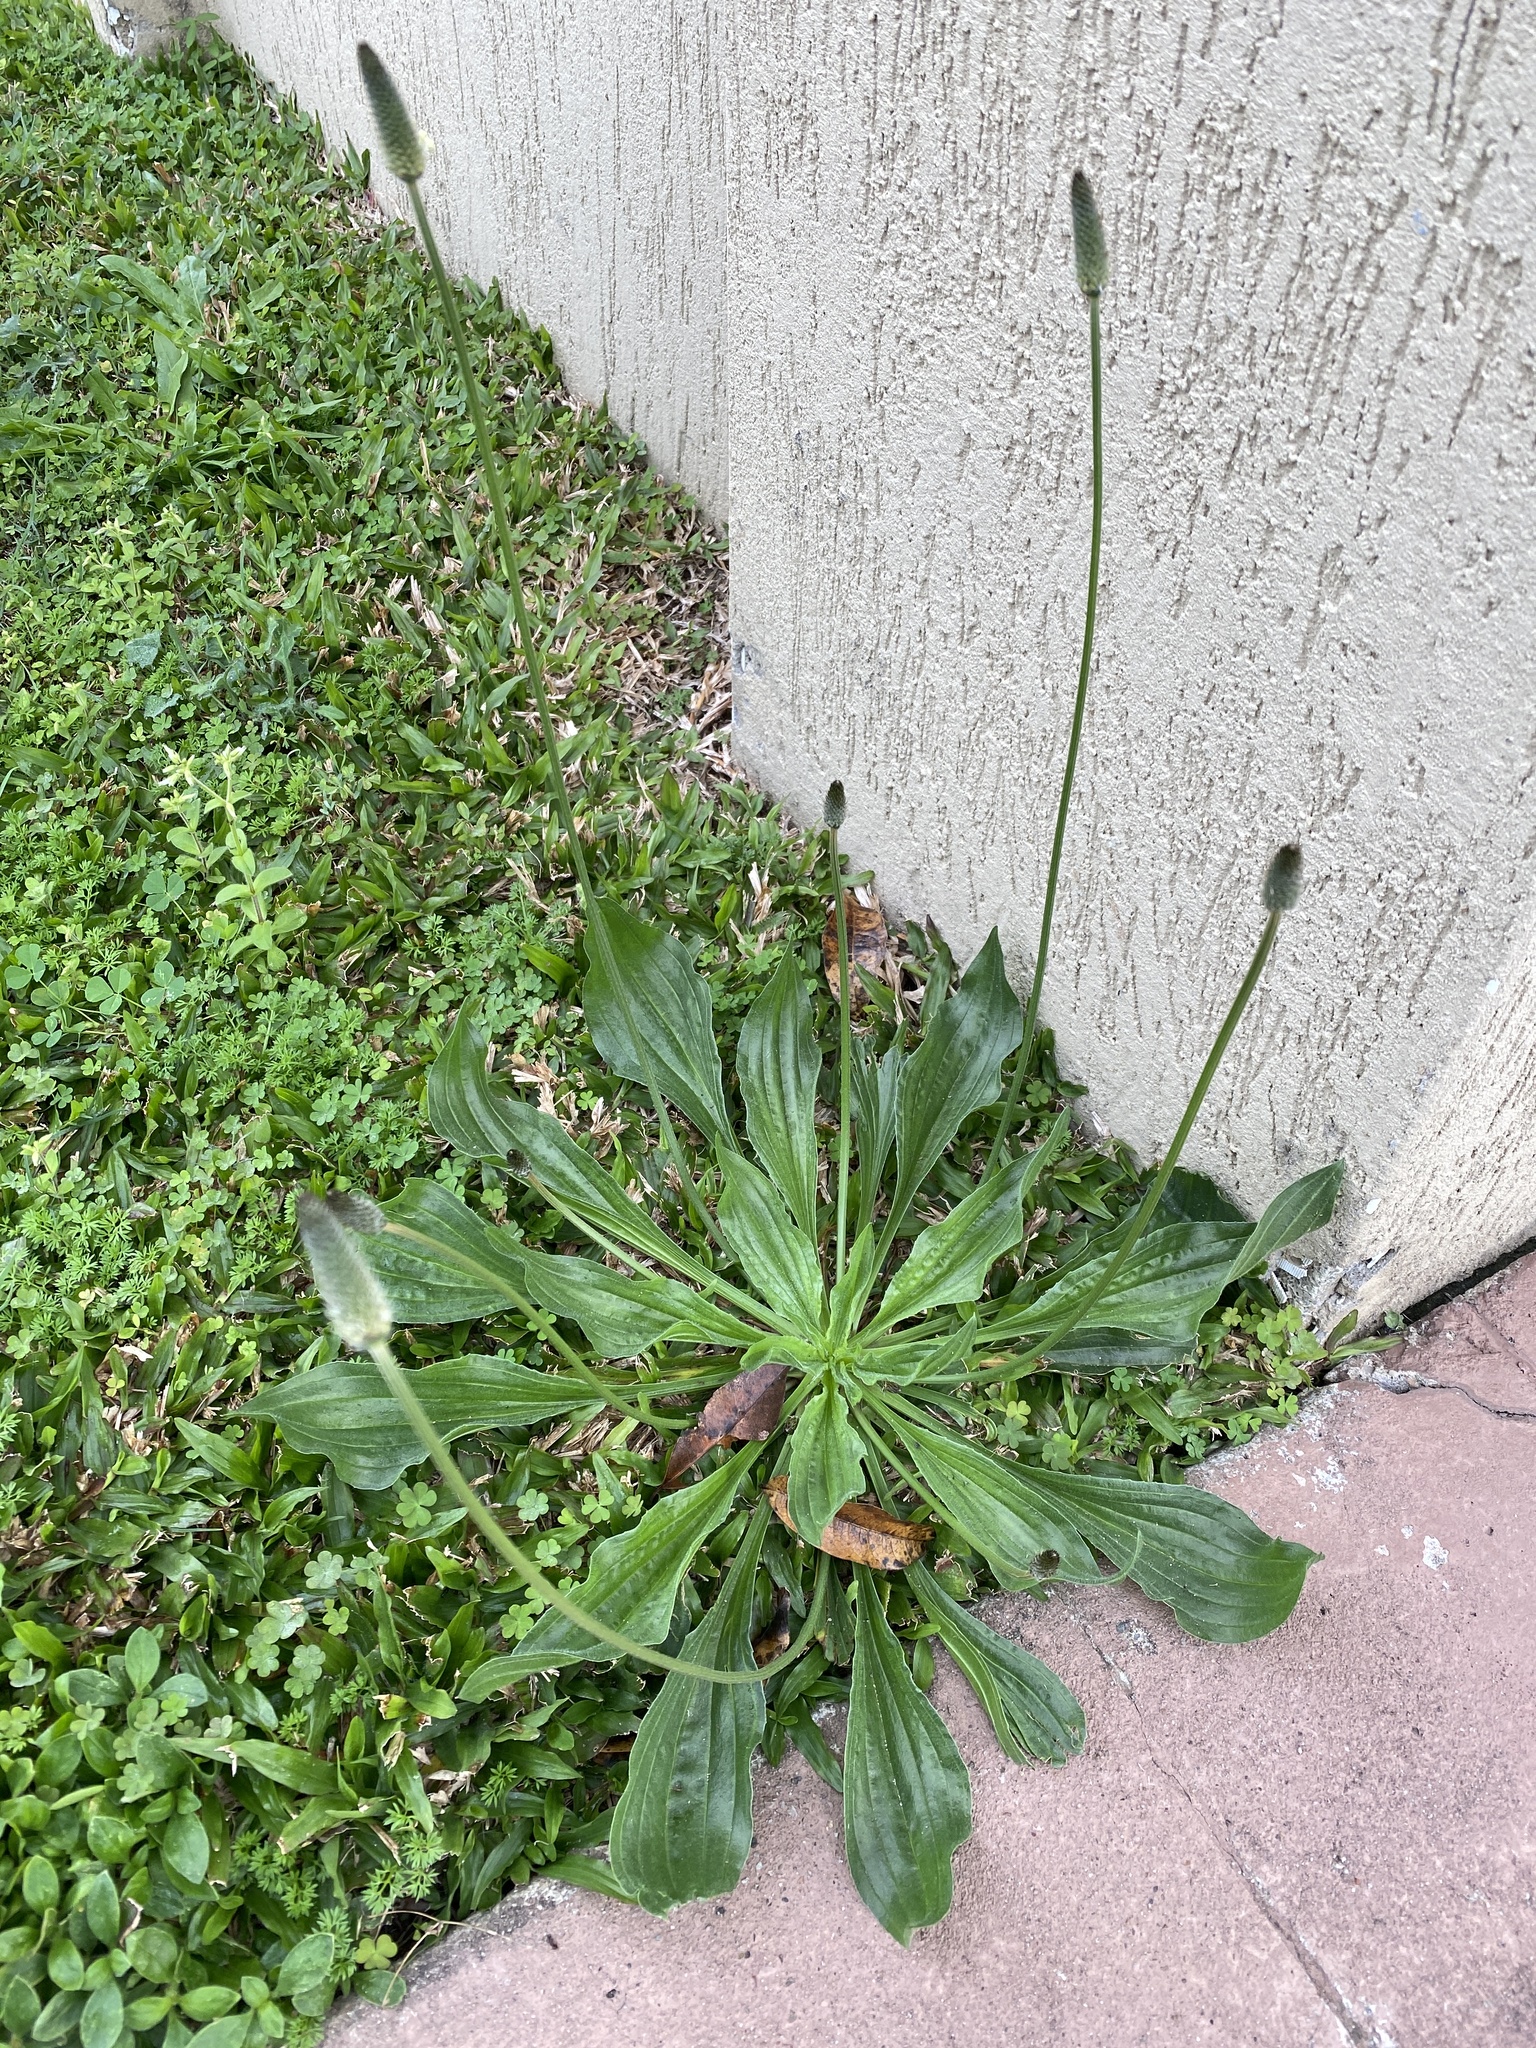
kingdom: Plantae
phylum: Tracheophyta
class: Magnoliopsida
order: Lamiales
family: Plantaginaceae
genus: Plantago
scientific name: Plantago lanceolata
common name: Ribwort plantain
